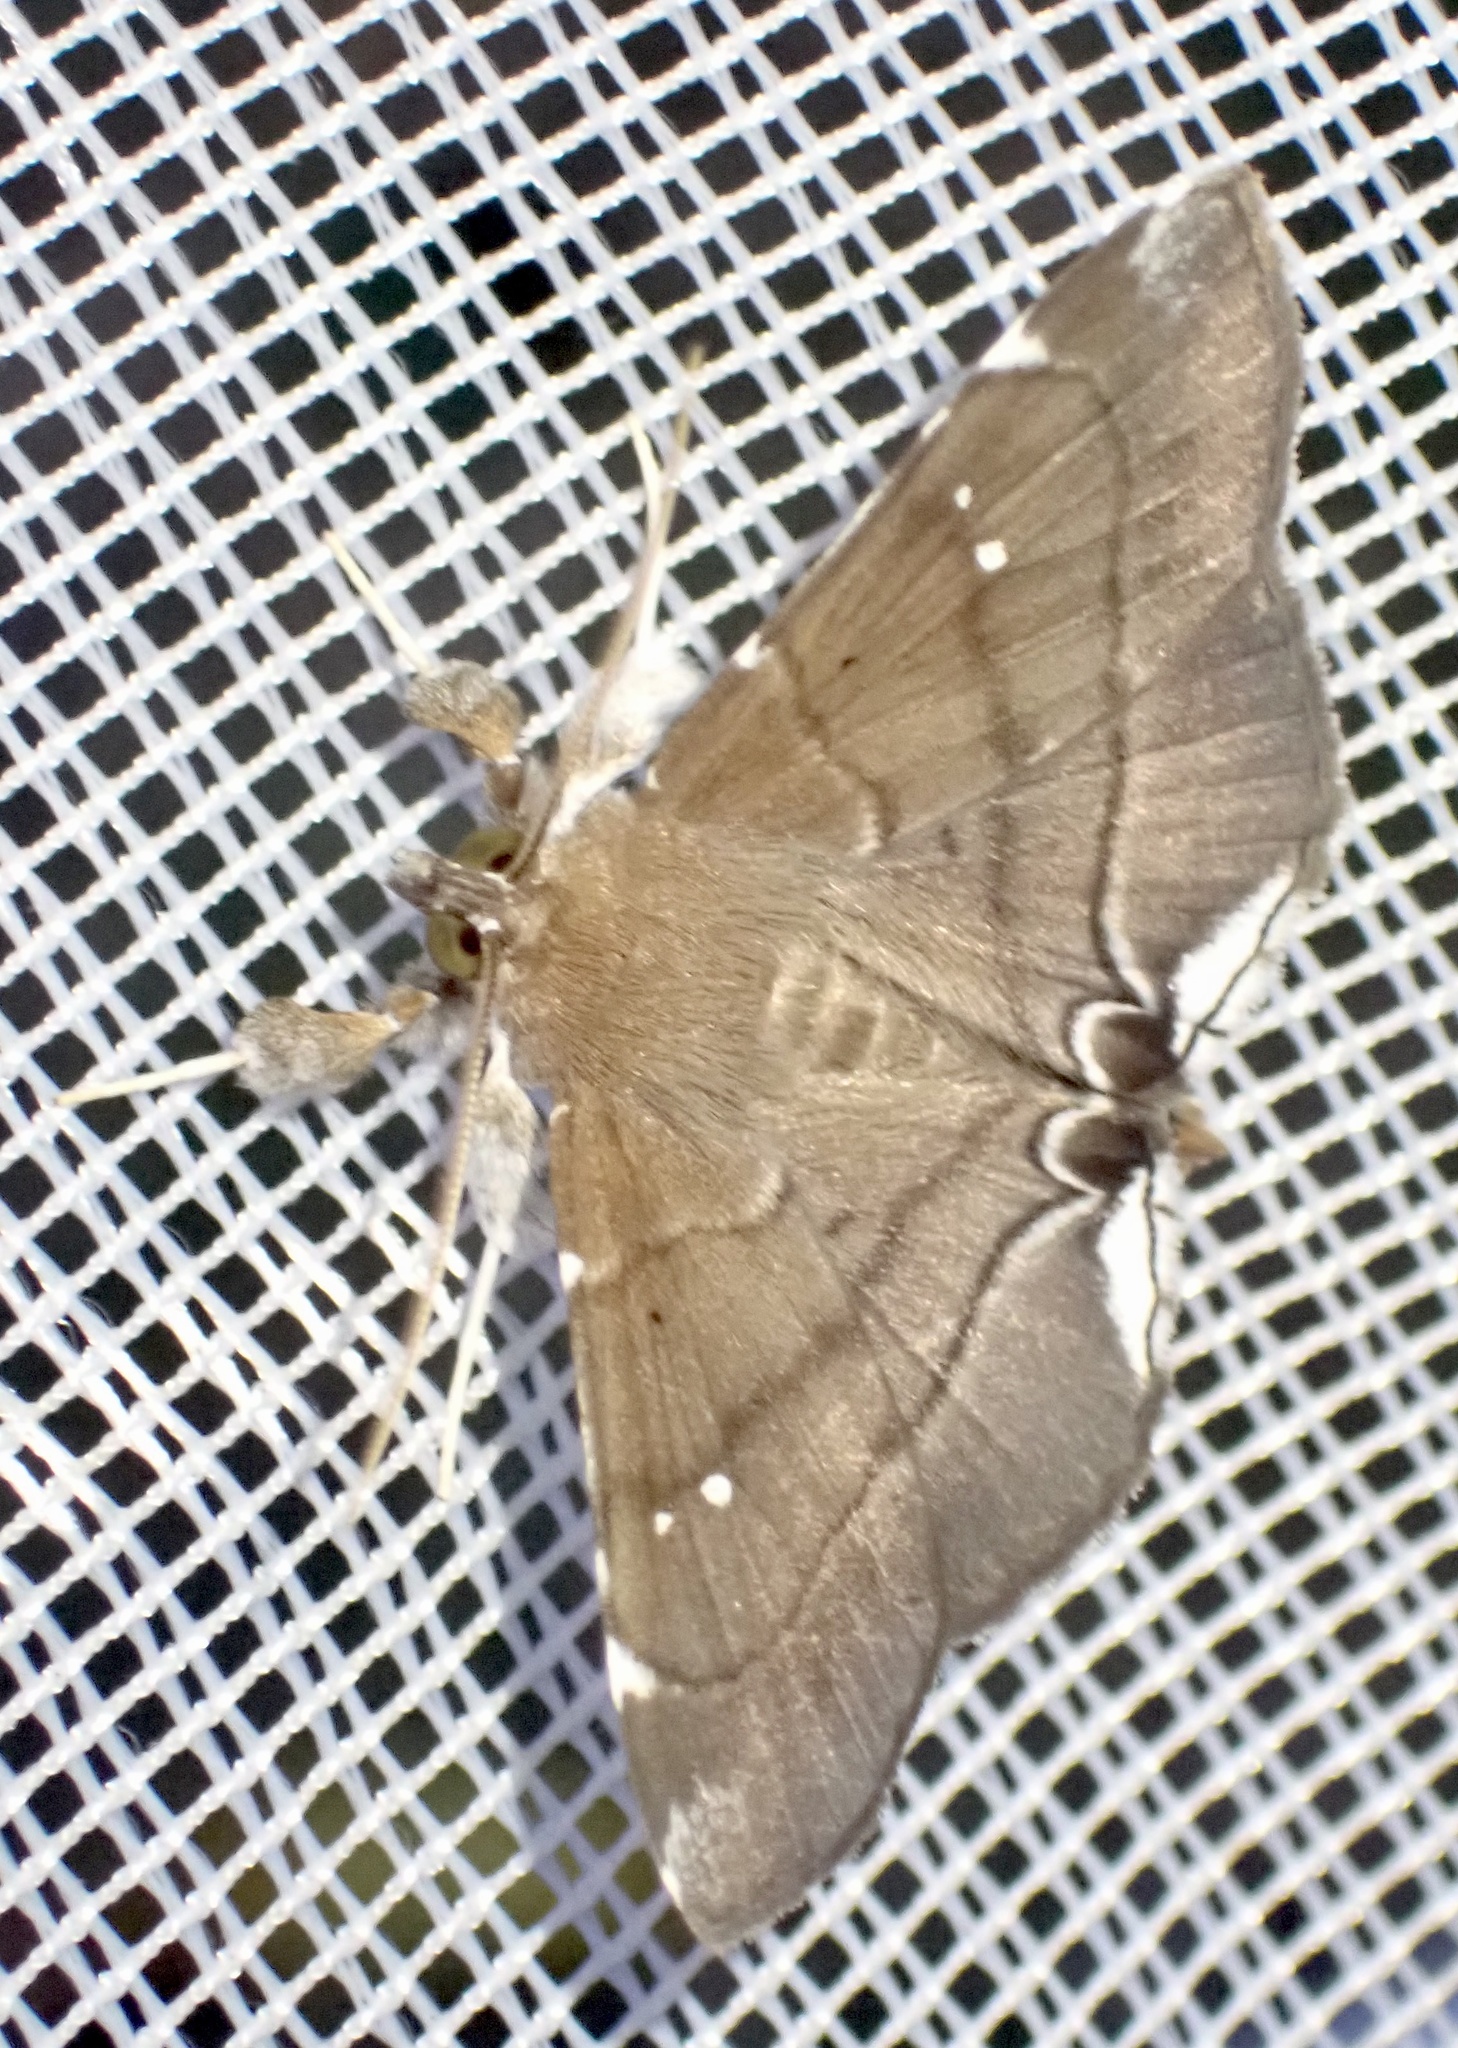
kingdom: Animalia
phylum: Arthropoda
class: Insecta
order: Lepidoptera
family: Erebidae
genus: Gracilodes
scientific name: Gracilodes nysa
